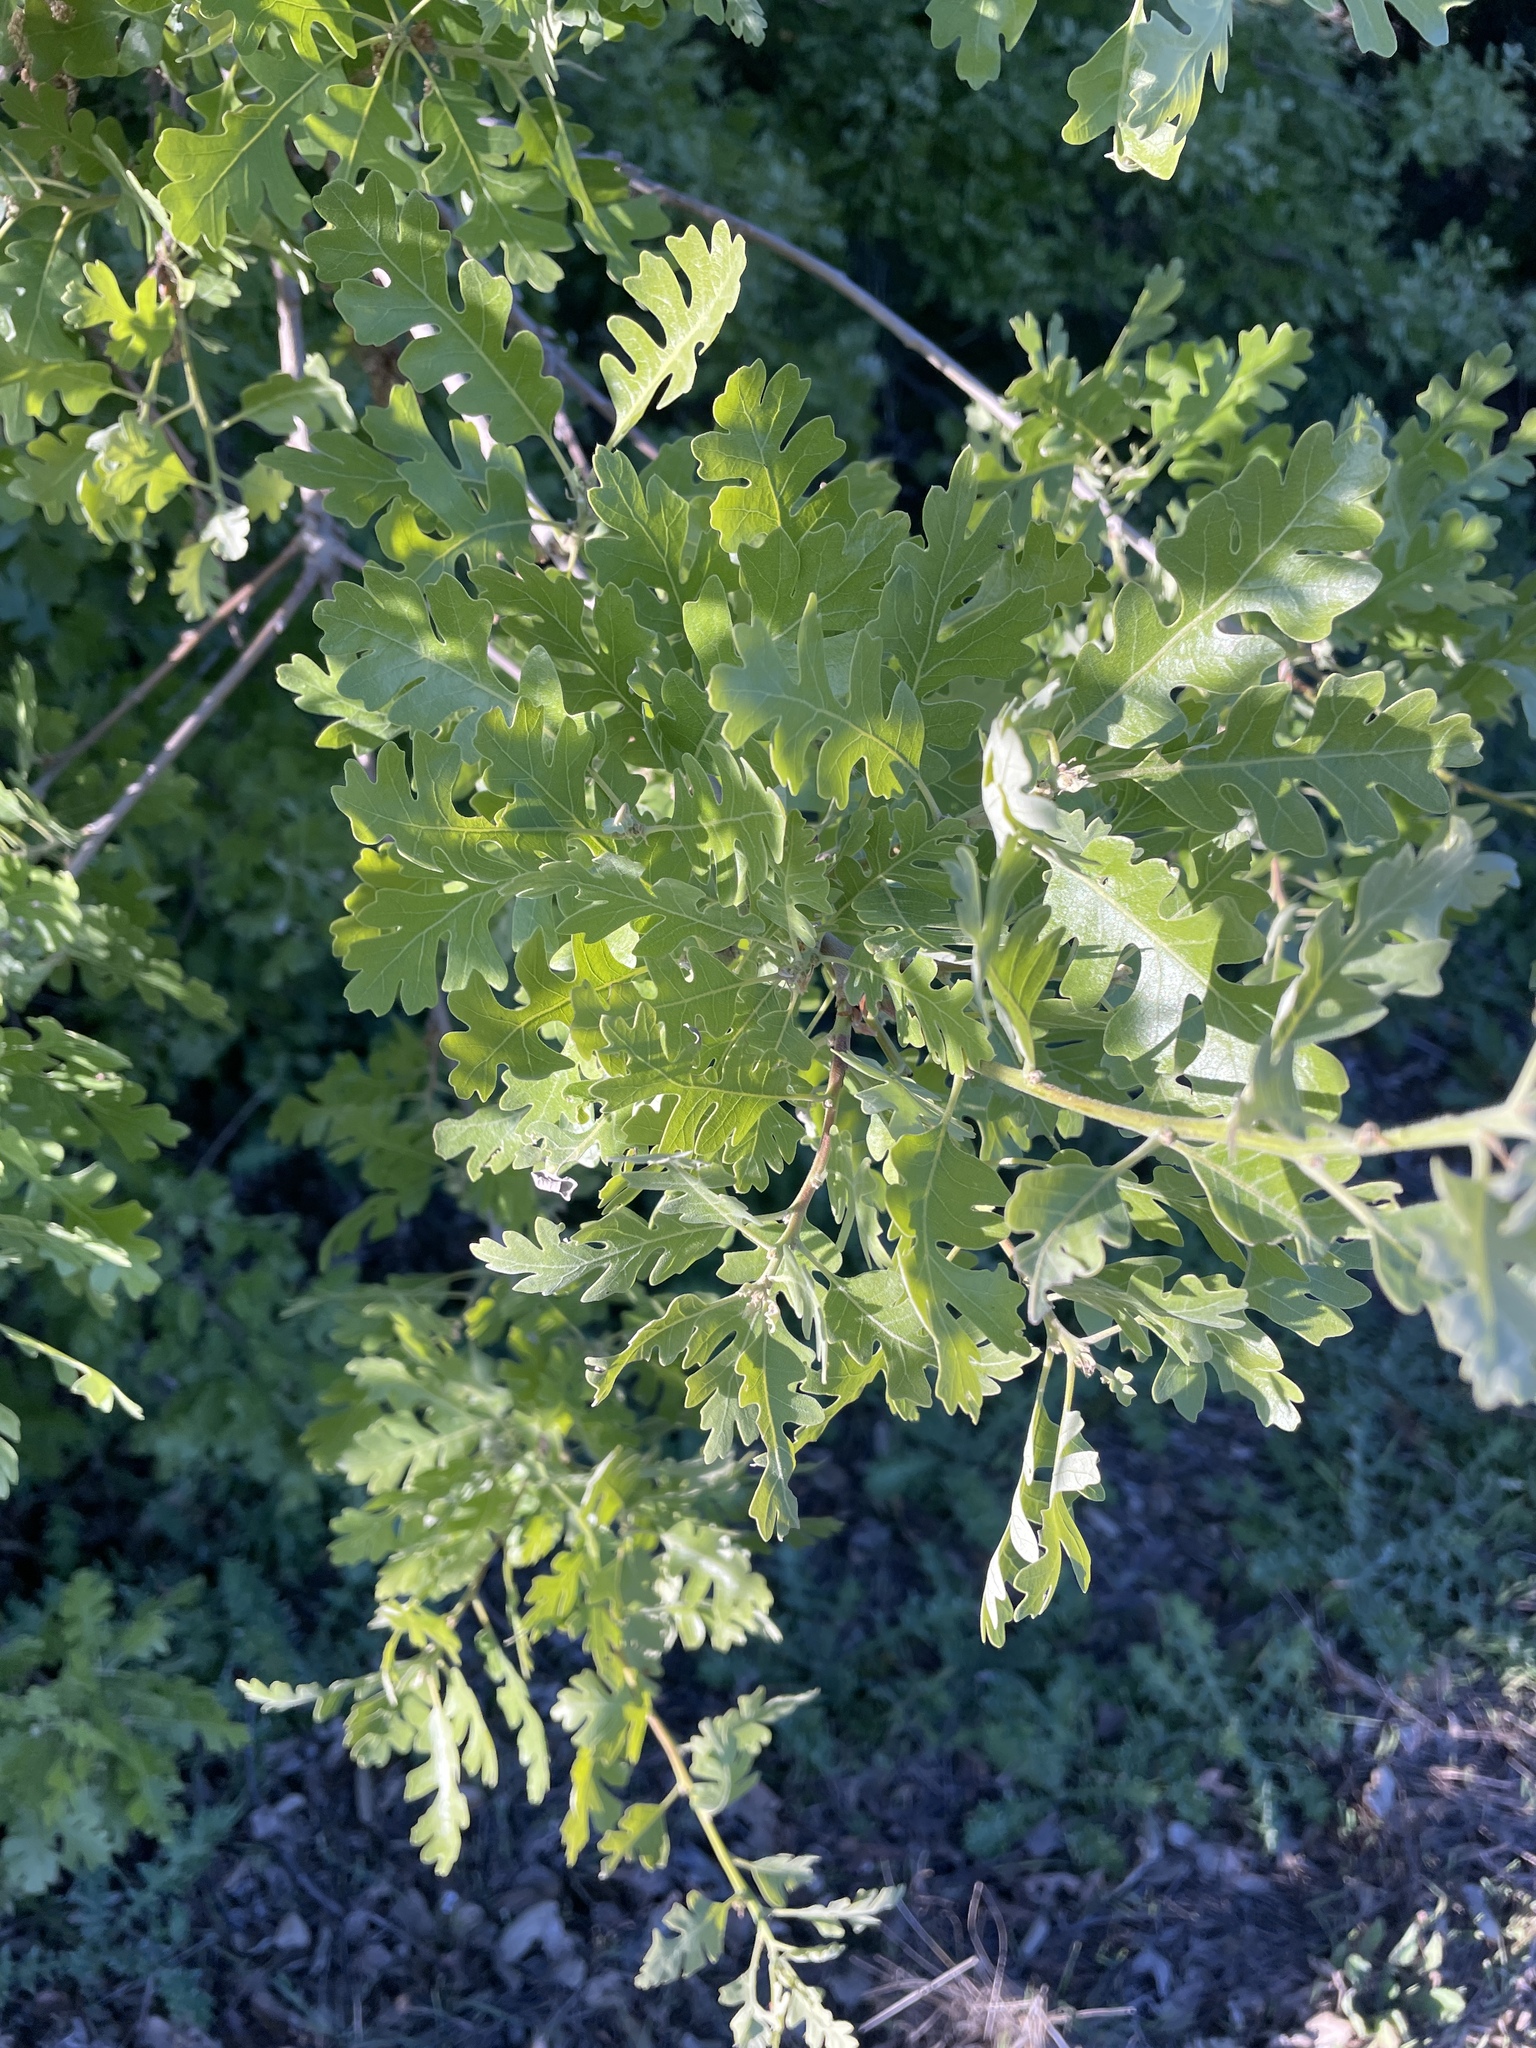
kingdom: Plantae
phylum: Tracheophyta
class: Magnoliopsida
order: Fagales
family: Fagaceae
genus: Quercus
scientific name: Quercus lobata
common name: Valley oak
